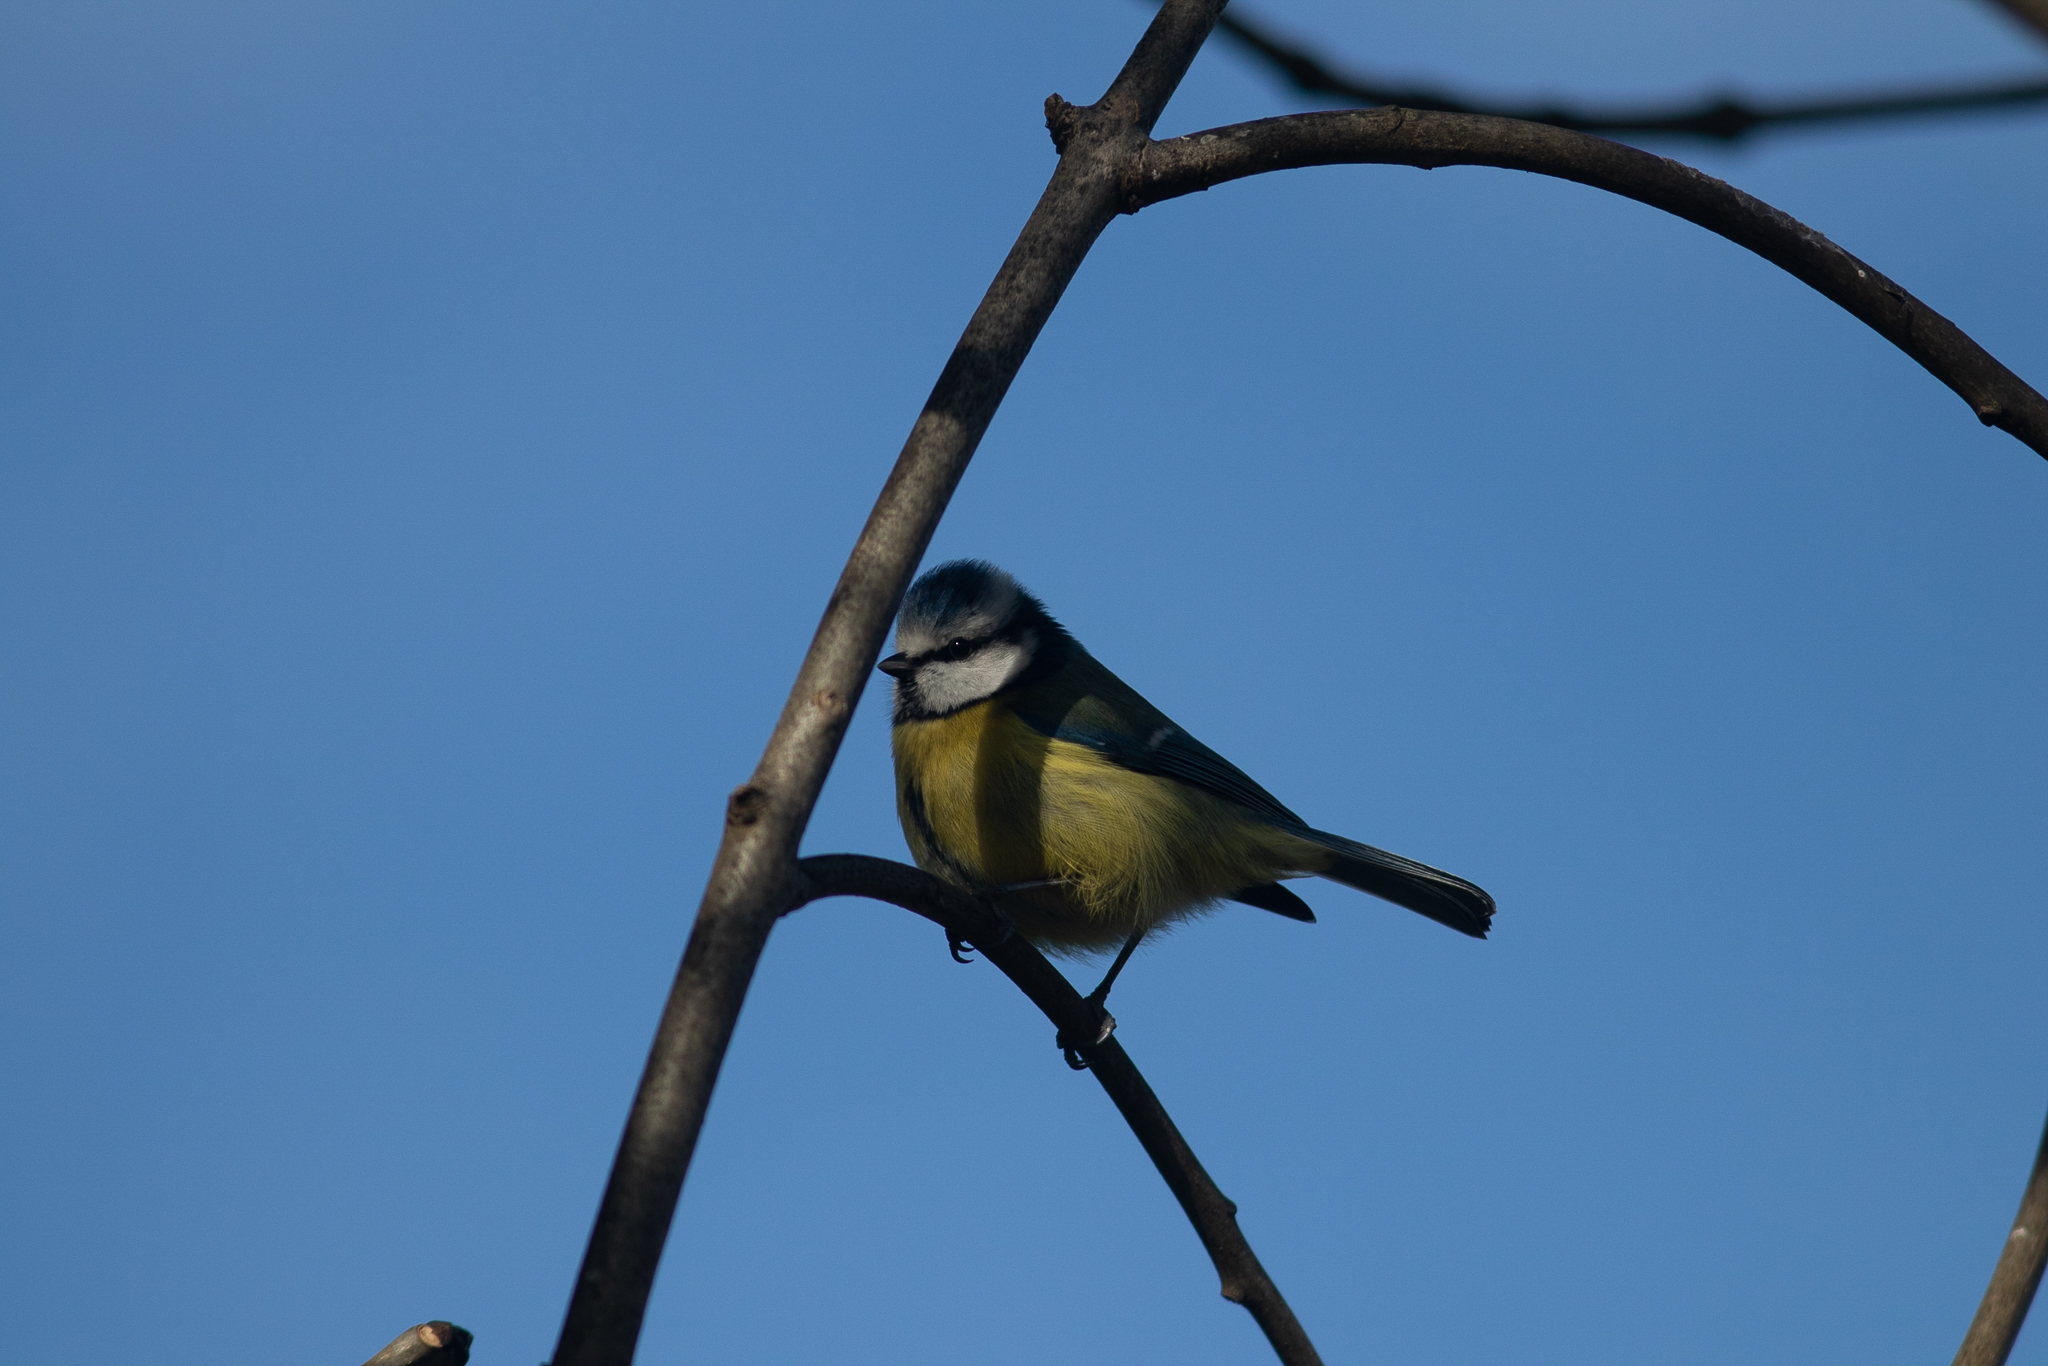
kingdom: Animalia
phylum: Chordata
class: Aves
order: Passeriformes
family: Paridae
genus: Cyanistes
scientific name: Cyanistes caeruleus
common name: Eurasian blue tit
